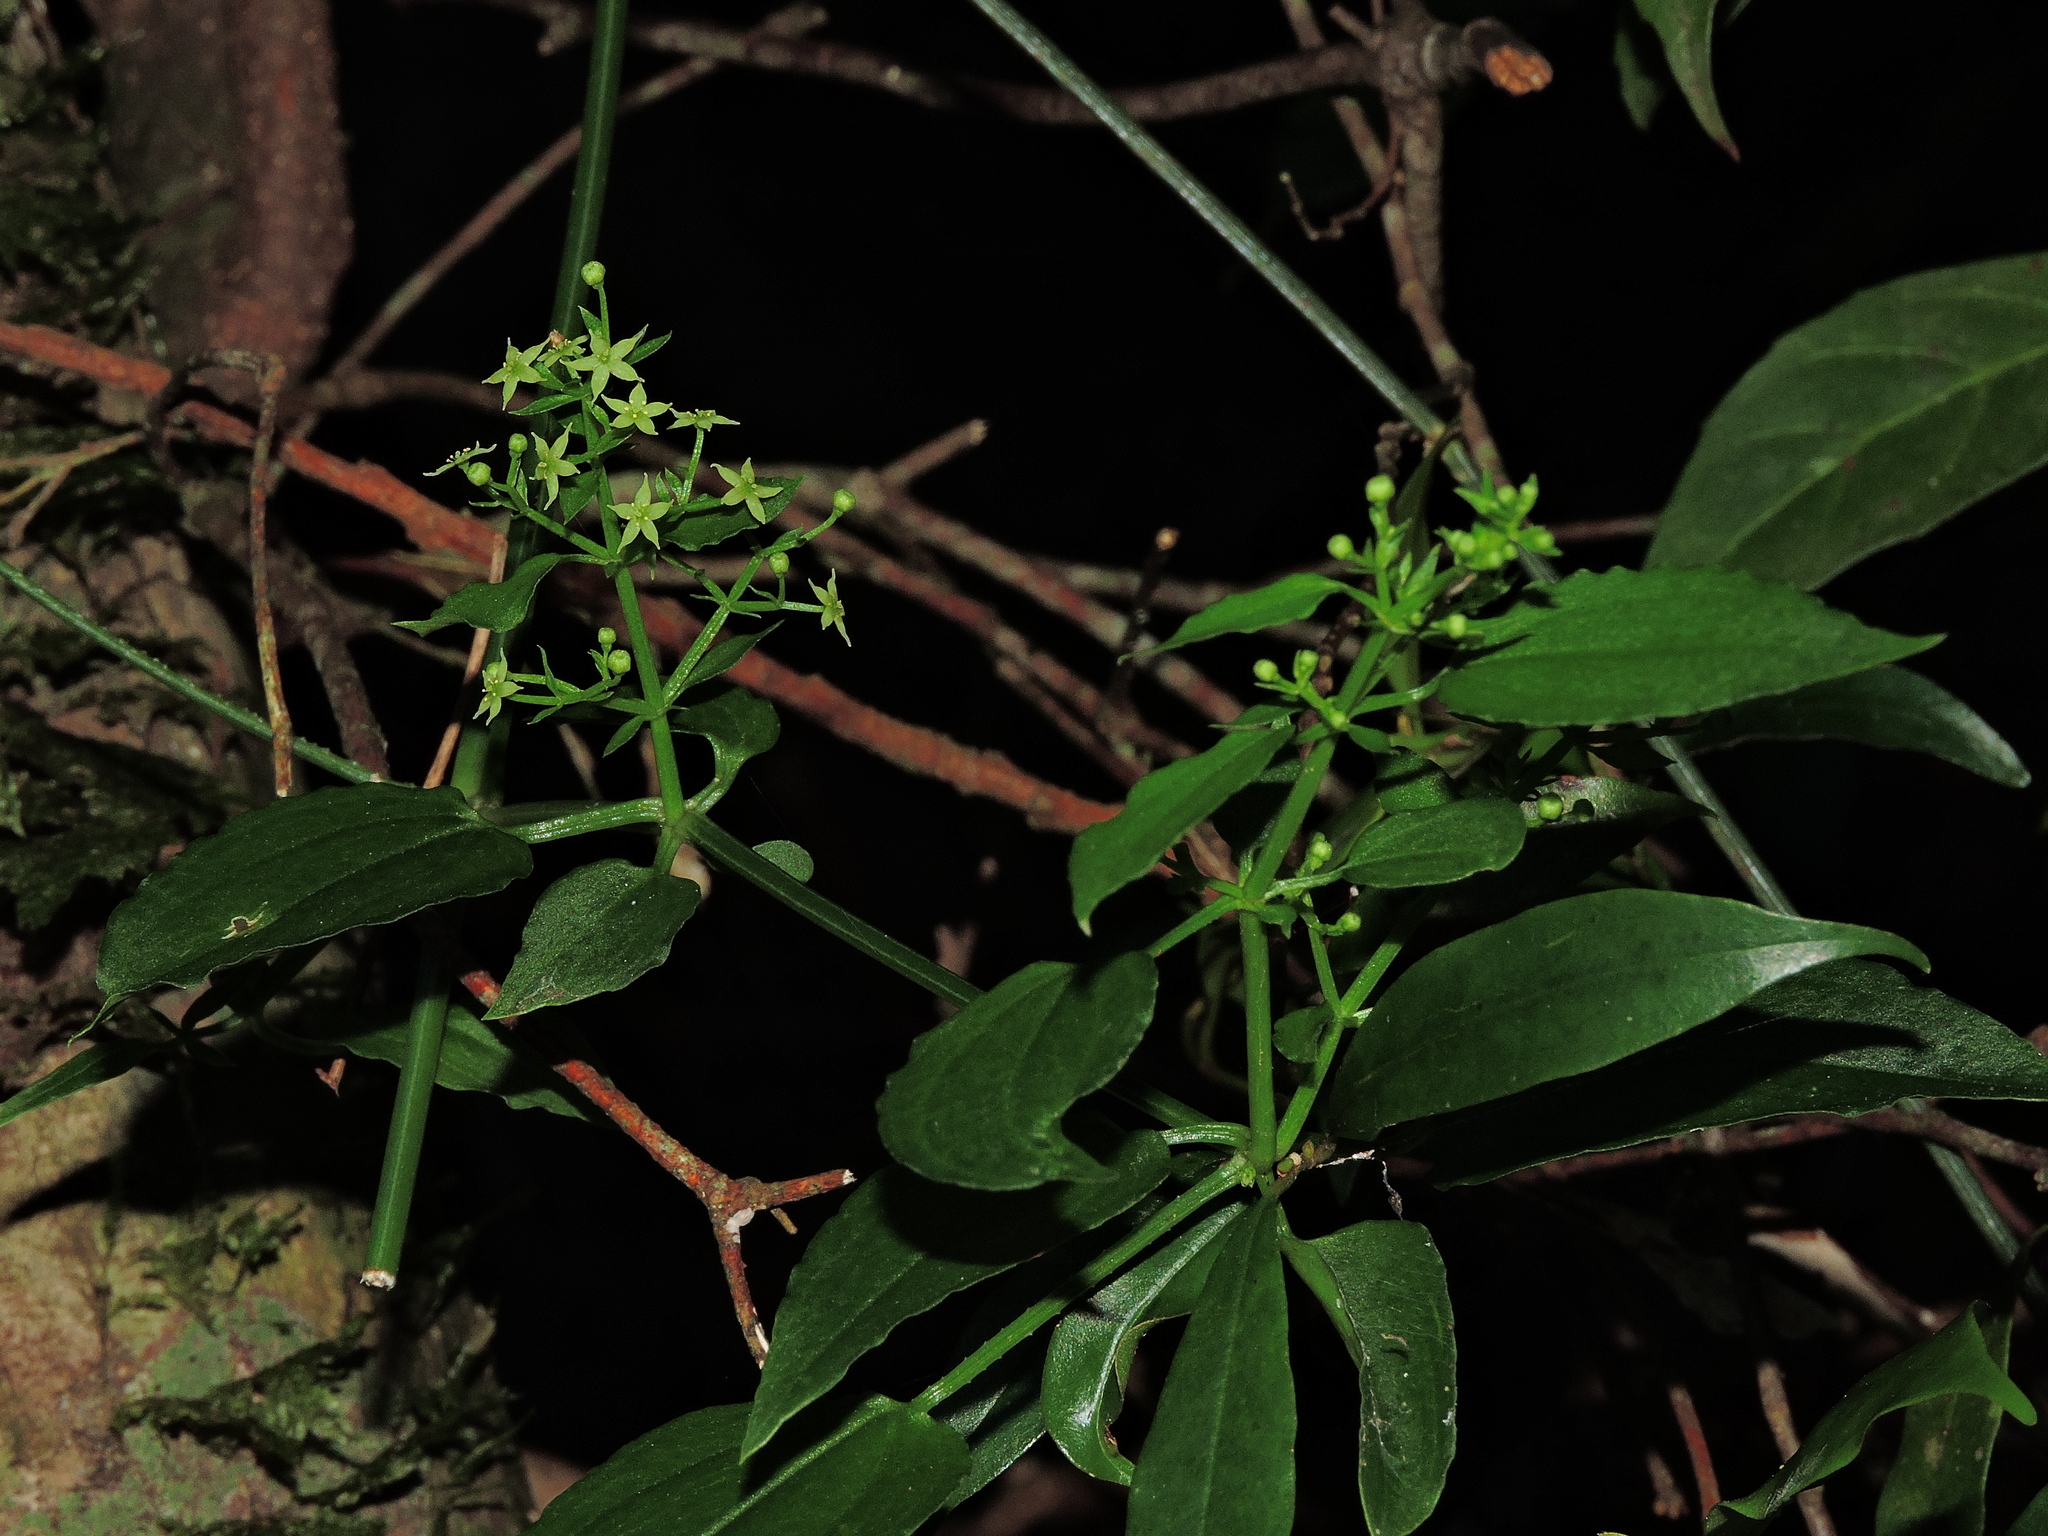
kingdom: Plantae
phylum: Tracheophyta
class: Magnoliopsida
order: Gentianales
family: Rubiaceae
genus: Rubia
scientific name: Rubia linii
